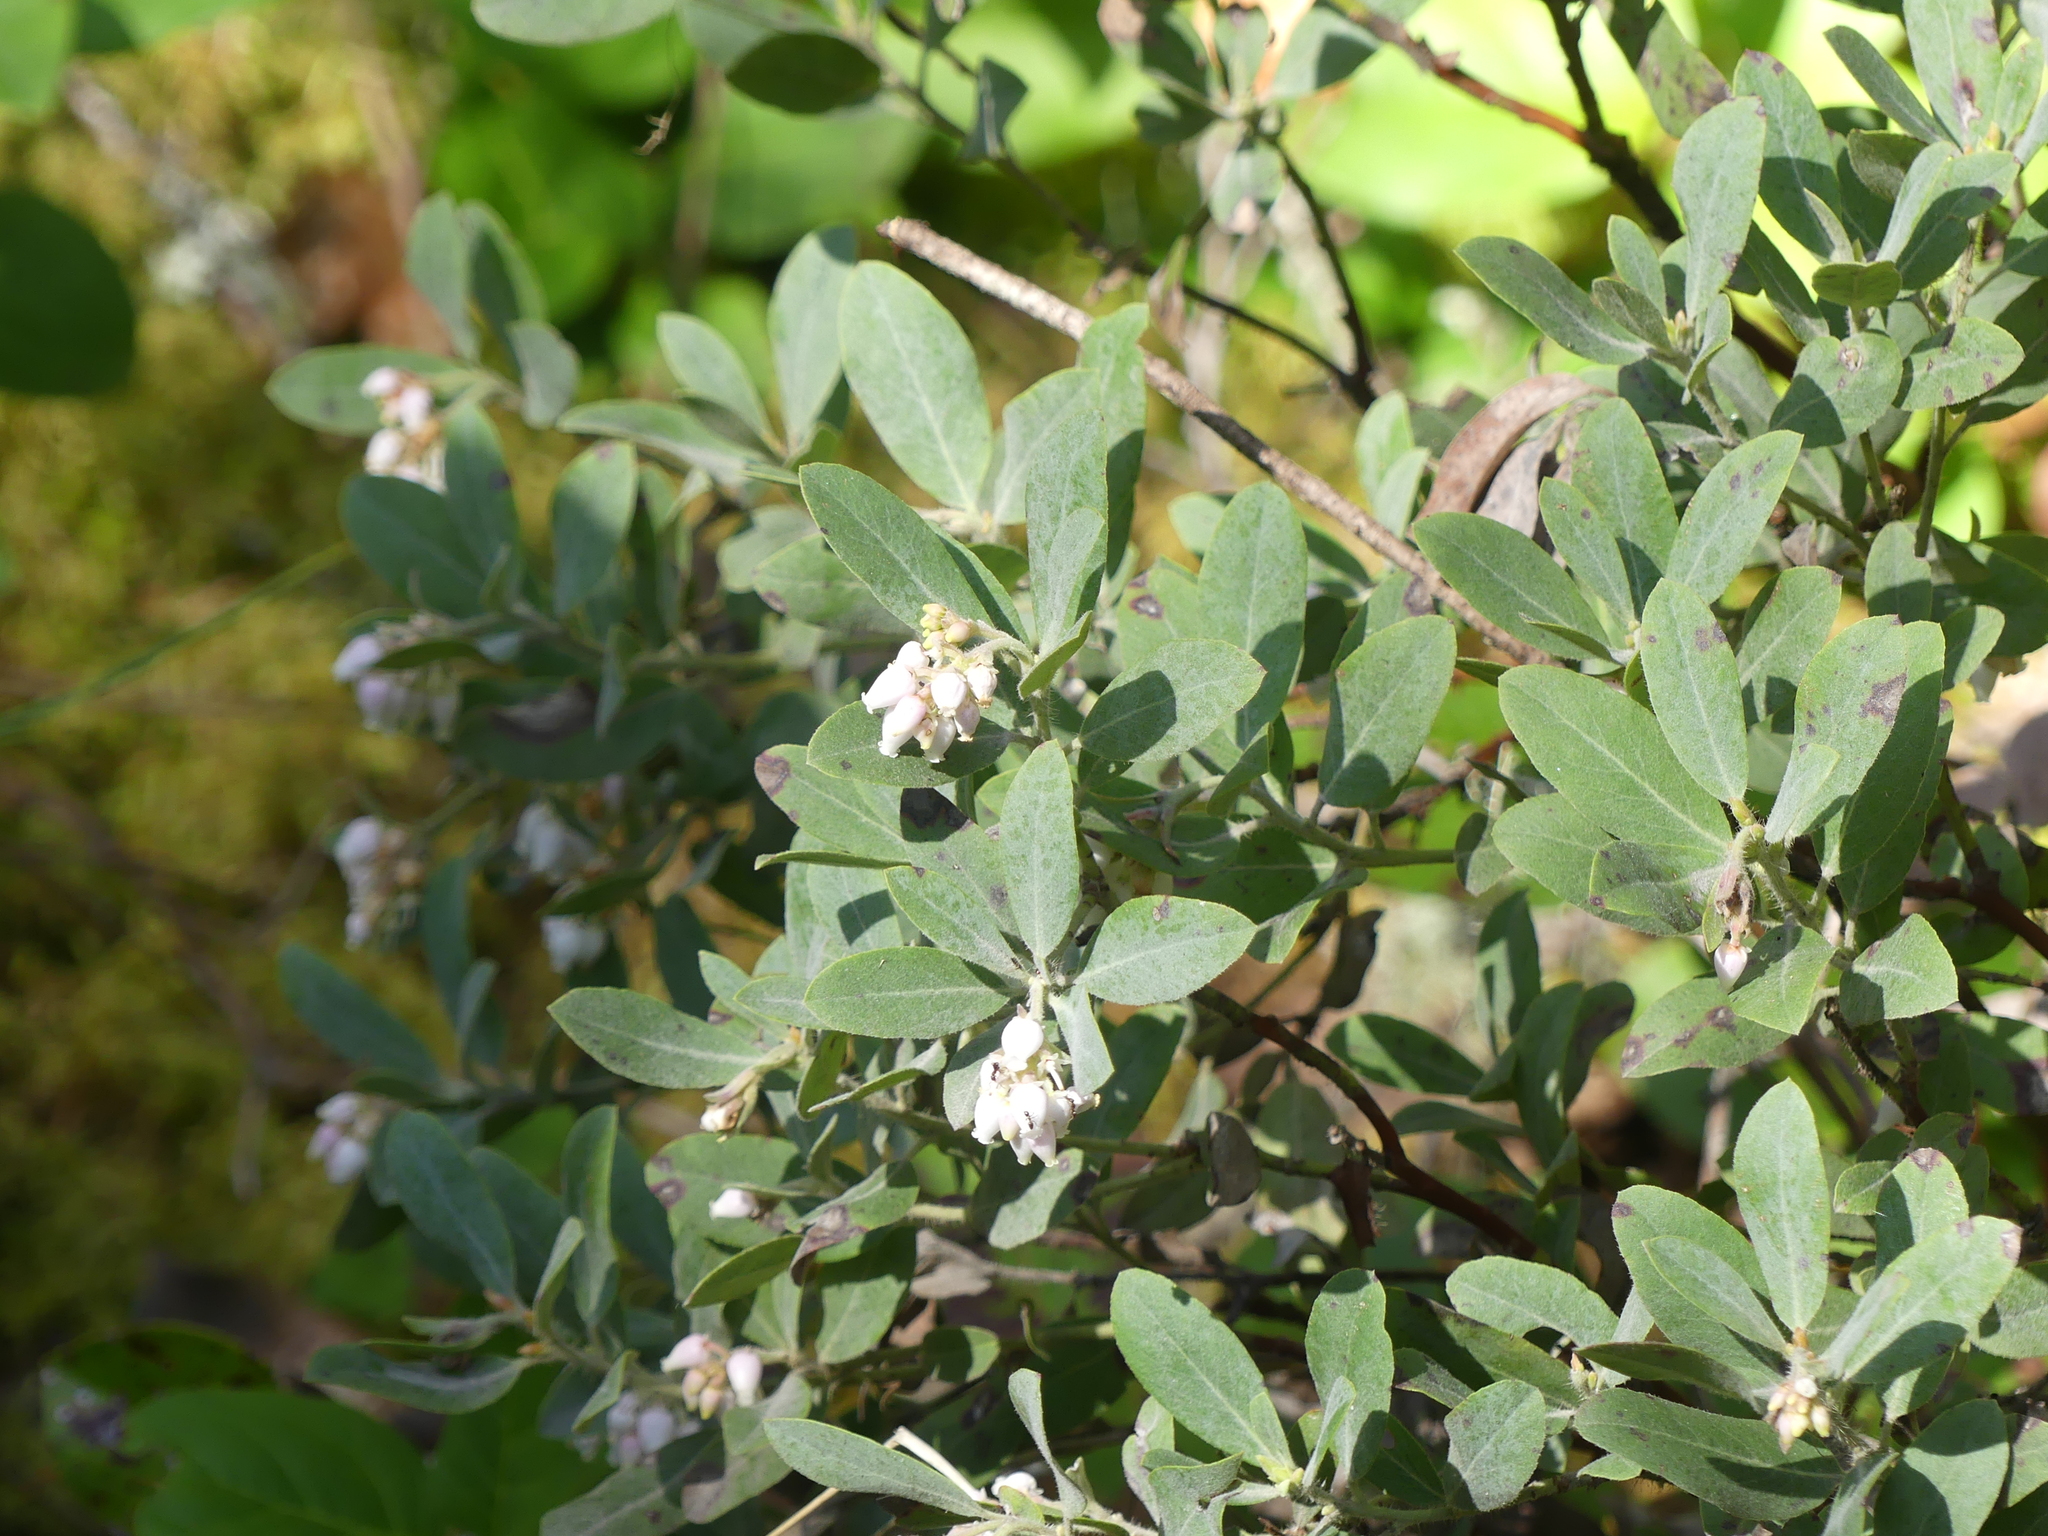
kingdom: Plantae
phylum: Tracheophyta
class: Magnoliopsida
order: Ericales
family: Ericaceae
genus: Arctostaphylos
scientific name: Arctostaphylos columbiana
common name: Bristly bearberry
